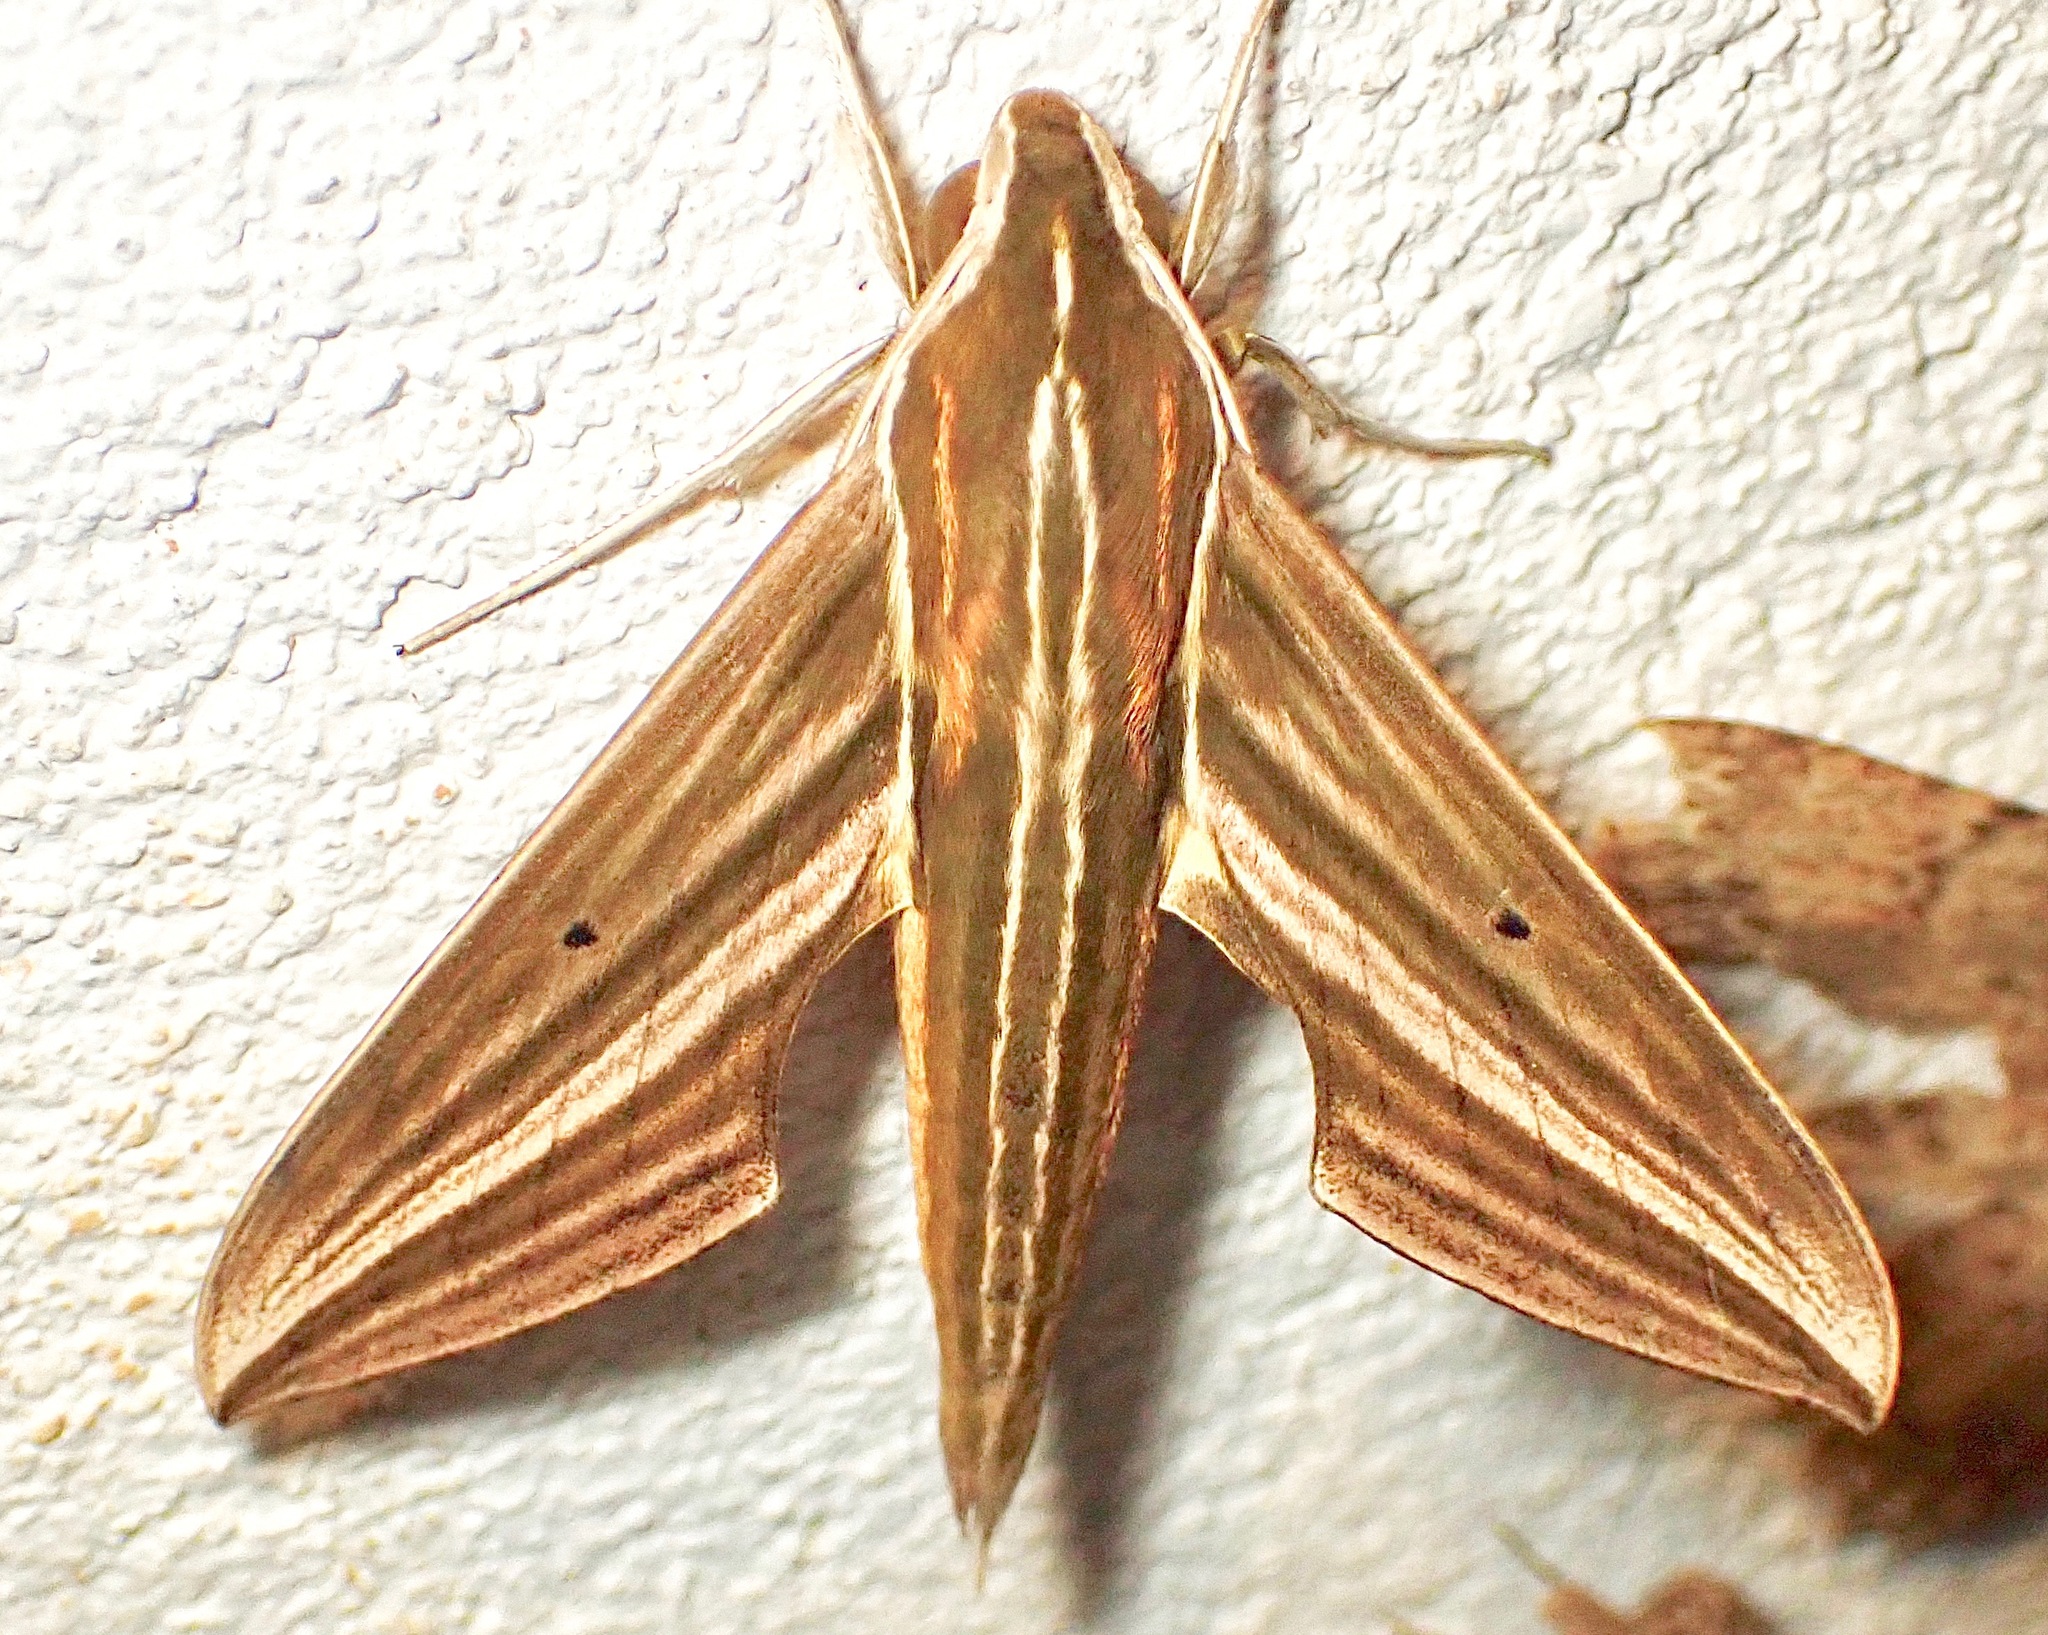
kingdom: Animalia
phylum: Arthropoda
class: Insecta
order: Lepidoptera
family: Sphingidae
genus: Xylophanes
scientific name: Xylophanes titana
